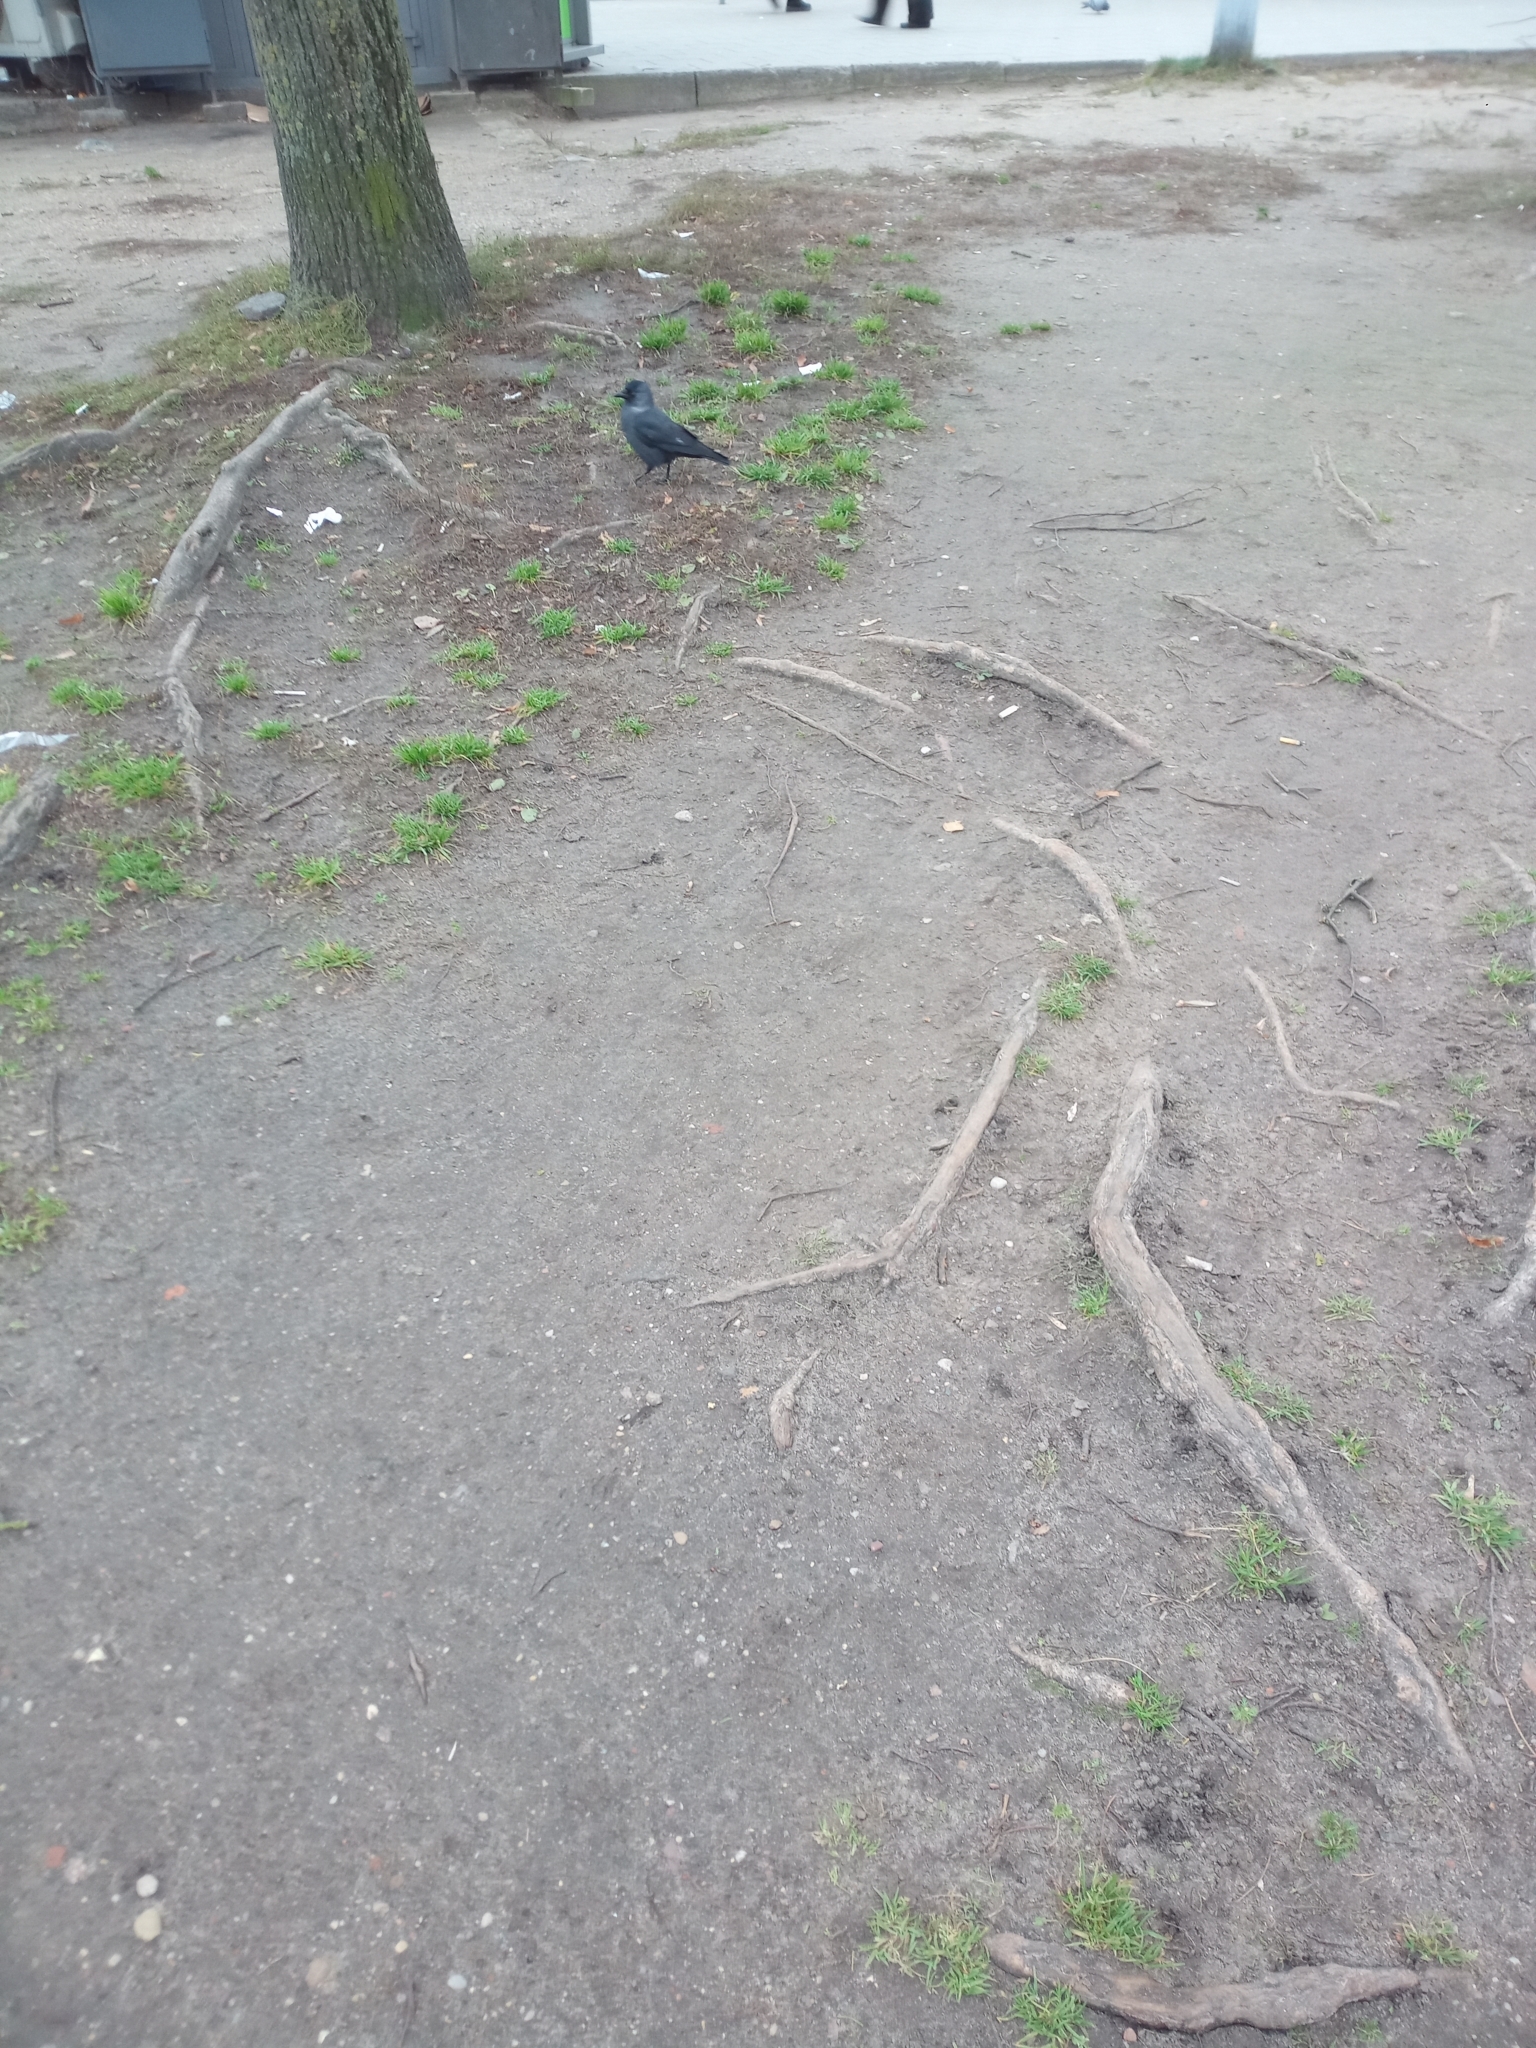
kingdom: Animalia
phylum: Chordata
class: Aves
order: Passeriformes
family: Corvidae
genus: Coloeus
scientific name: Coloeus monedula
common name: Western jackdaw
